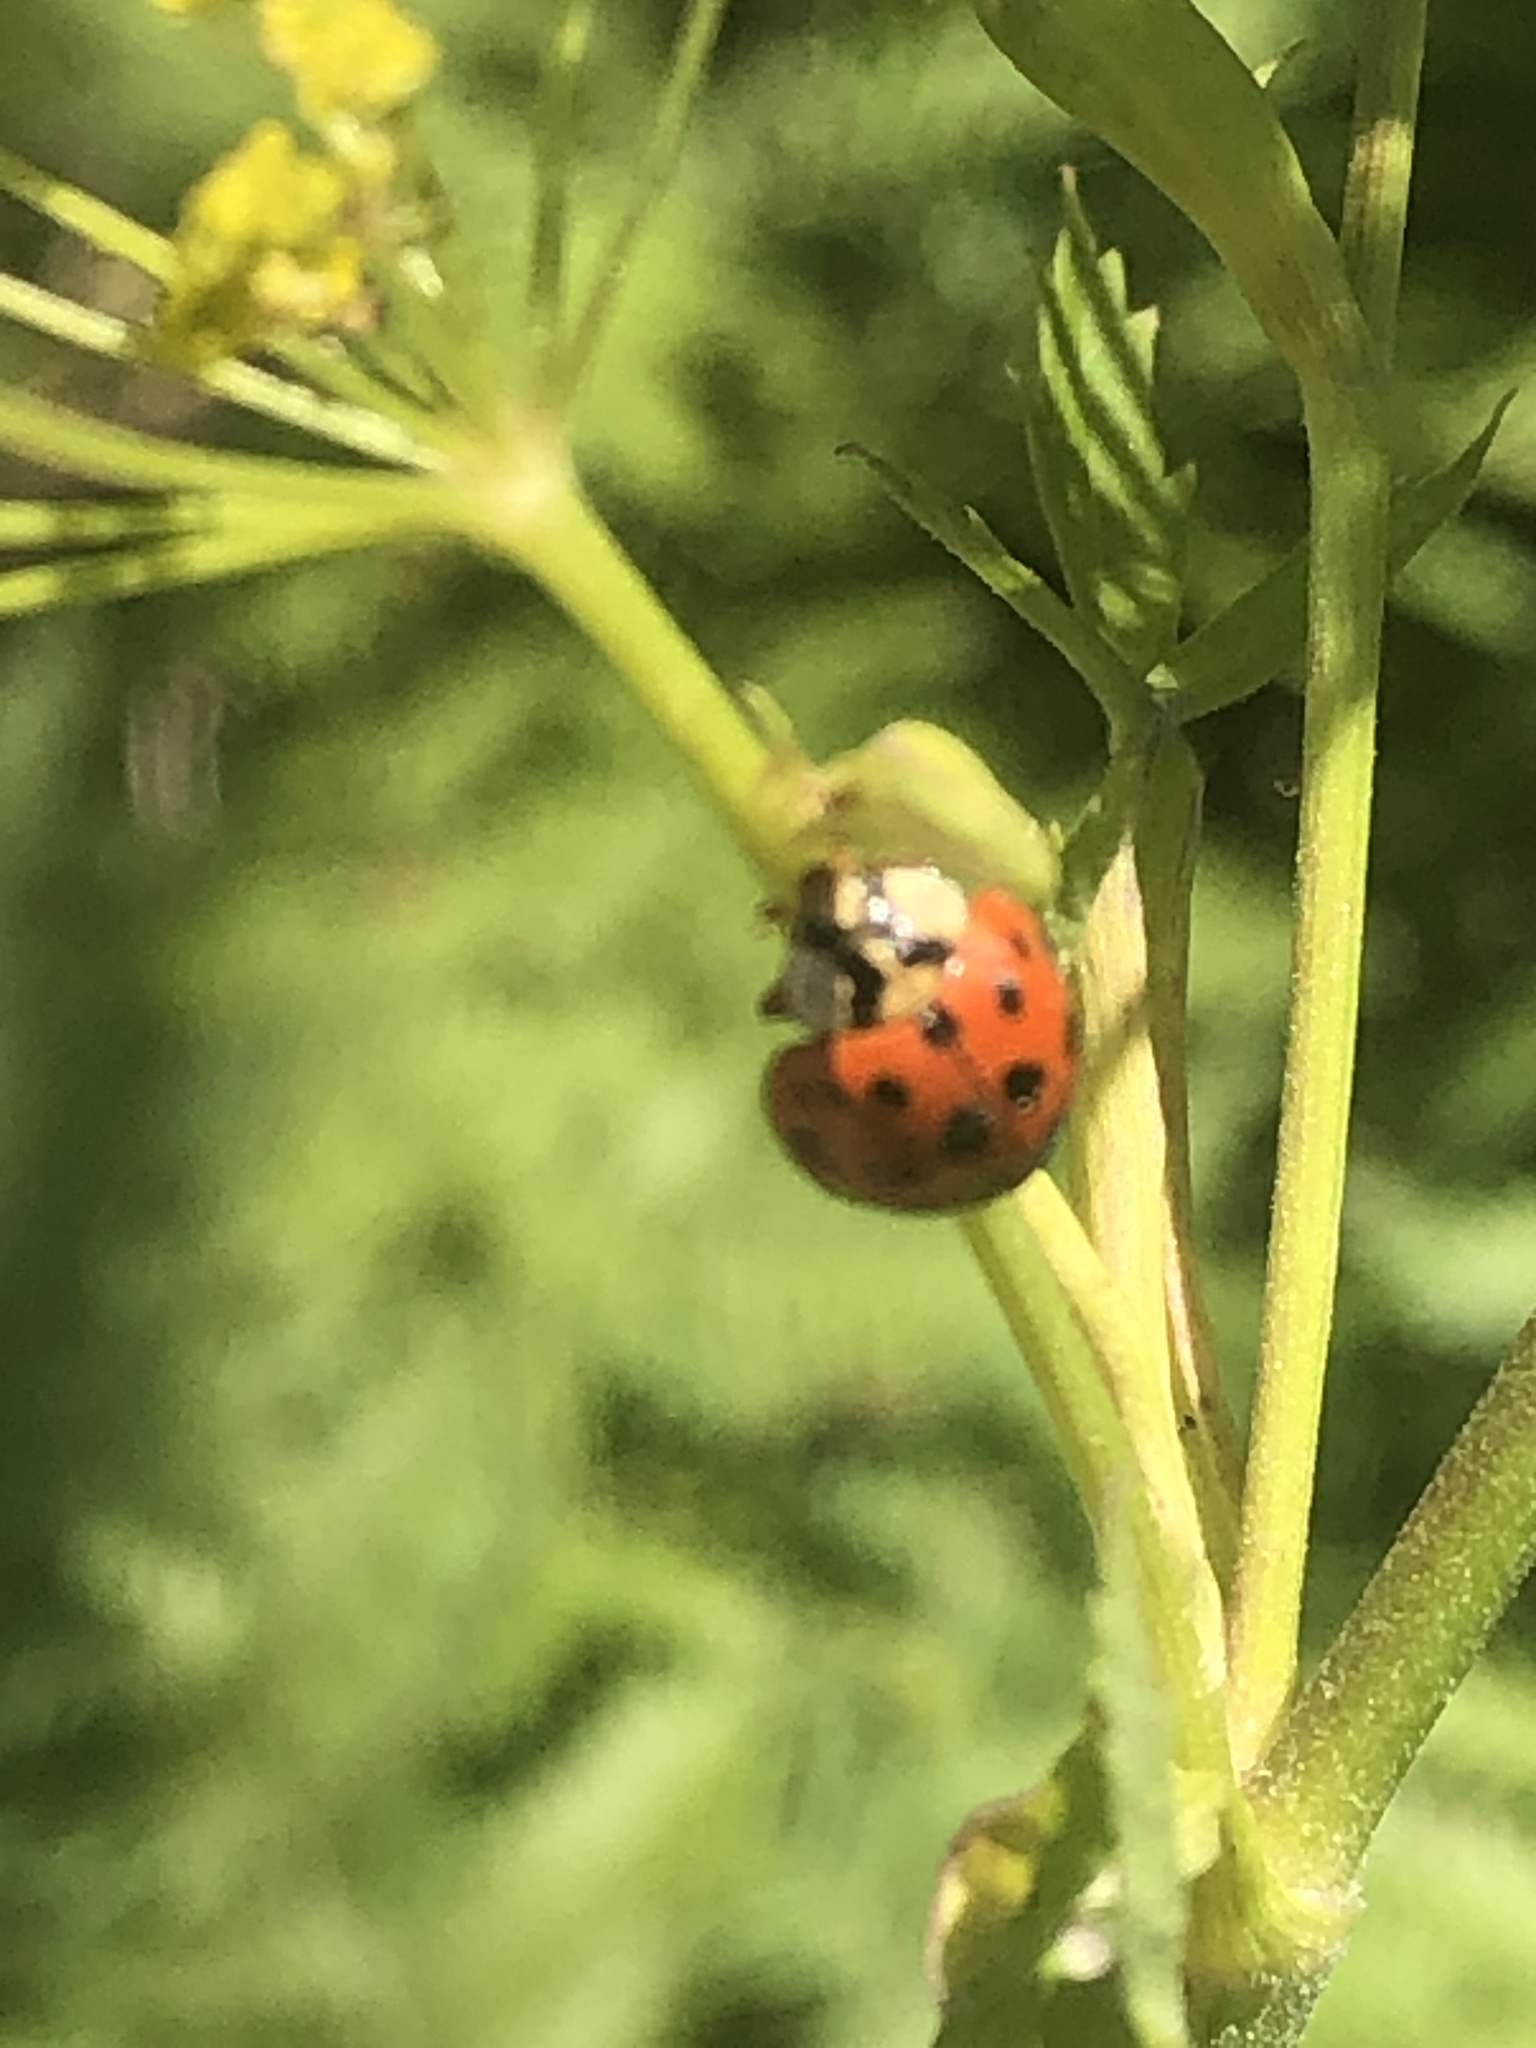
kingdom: Animalia
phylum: Arthropoda
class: Insecta
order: Coleoptera
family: Coccinellidae
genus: Harmonia
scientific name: Harmonia axyridis
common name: Harlequin ladybird
